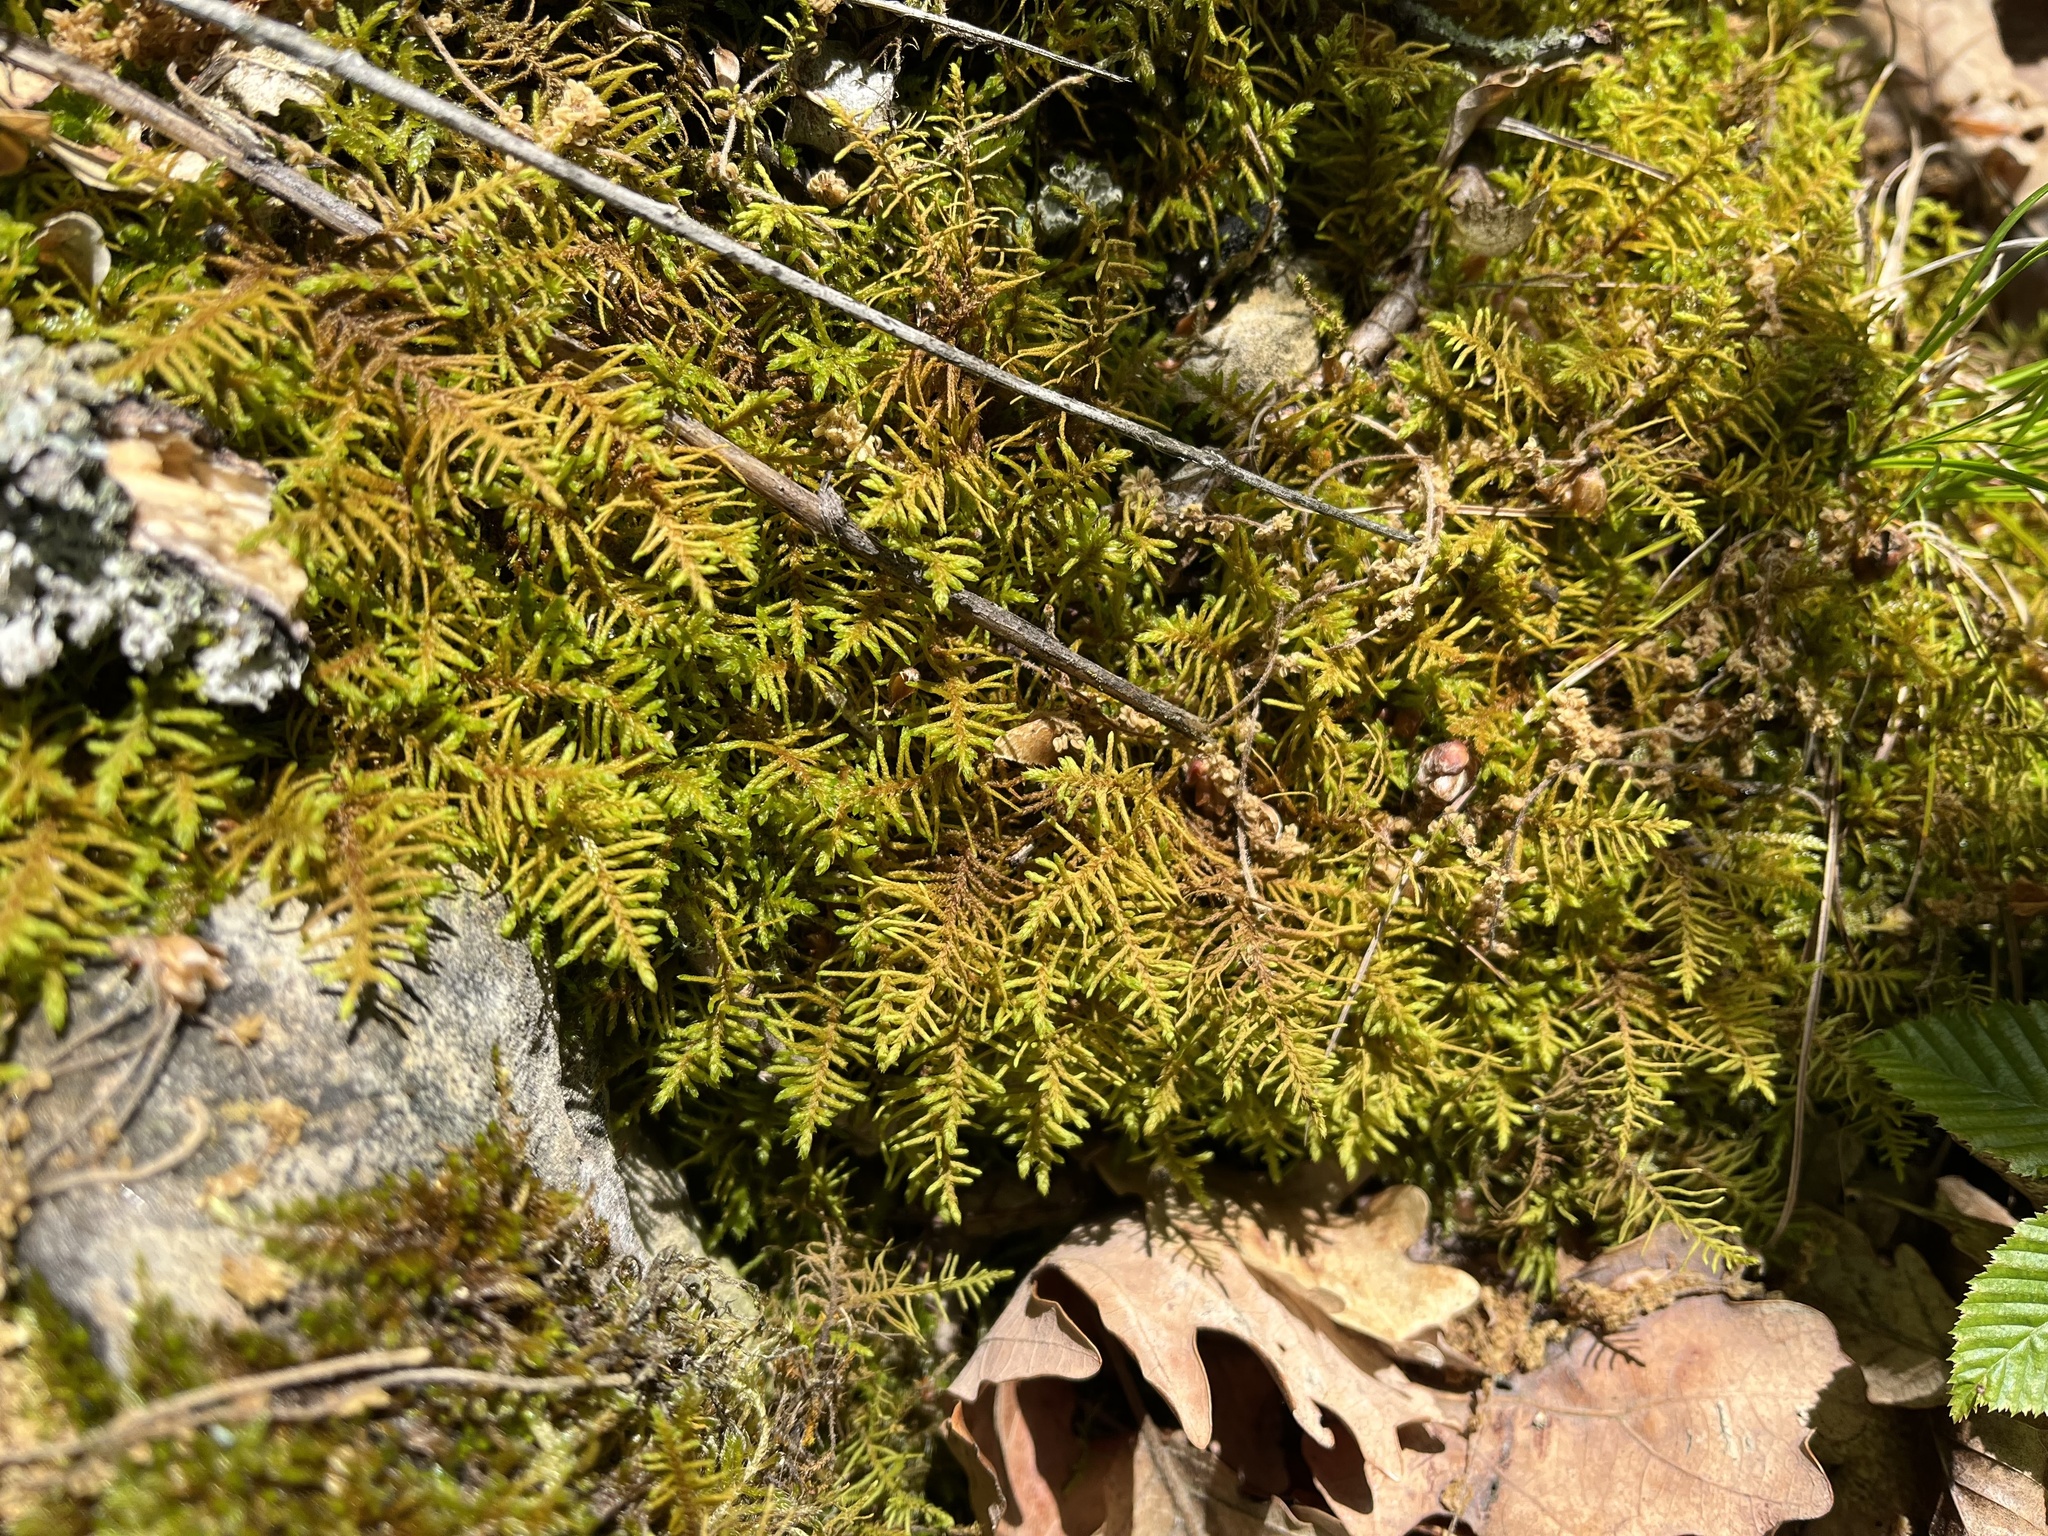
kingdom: Plantae
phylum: Bryophyta
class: Bryopsida
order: Hypnales
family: Thuidiaceae
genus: Abietinella
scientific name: Abietinella abietina
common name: Wiry fern moss
